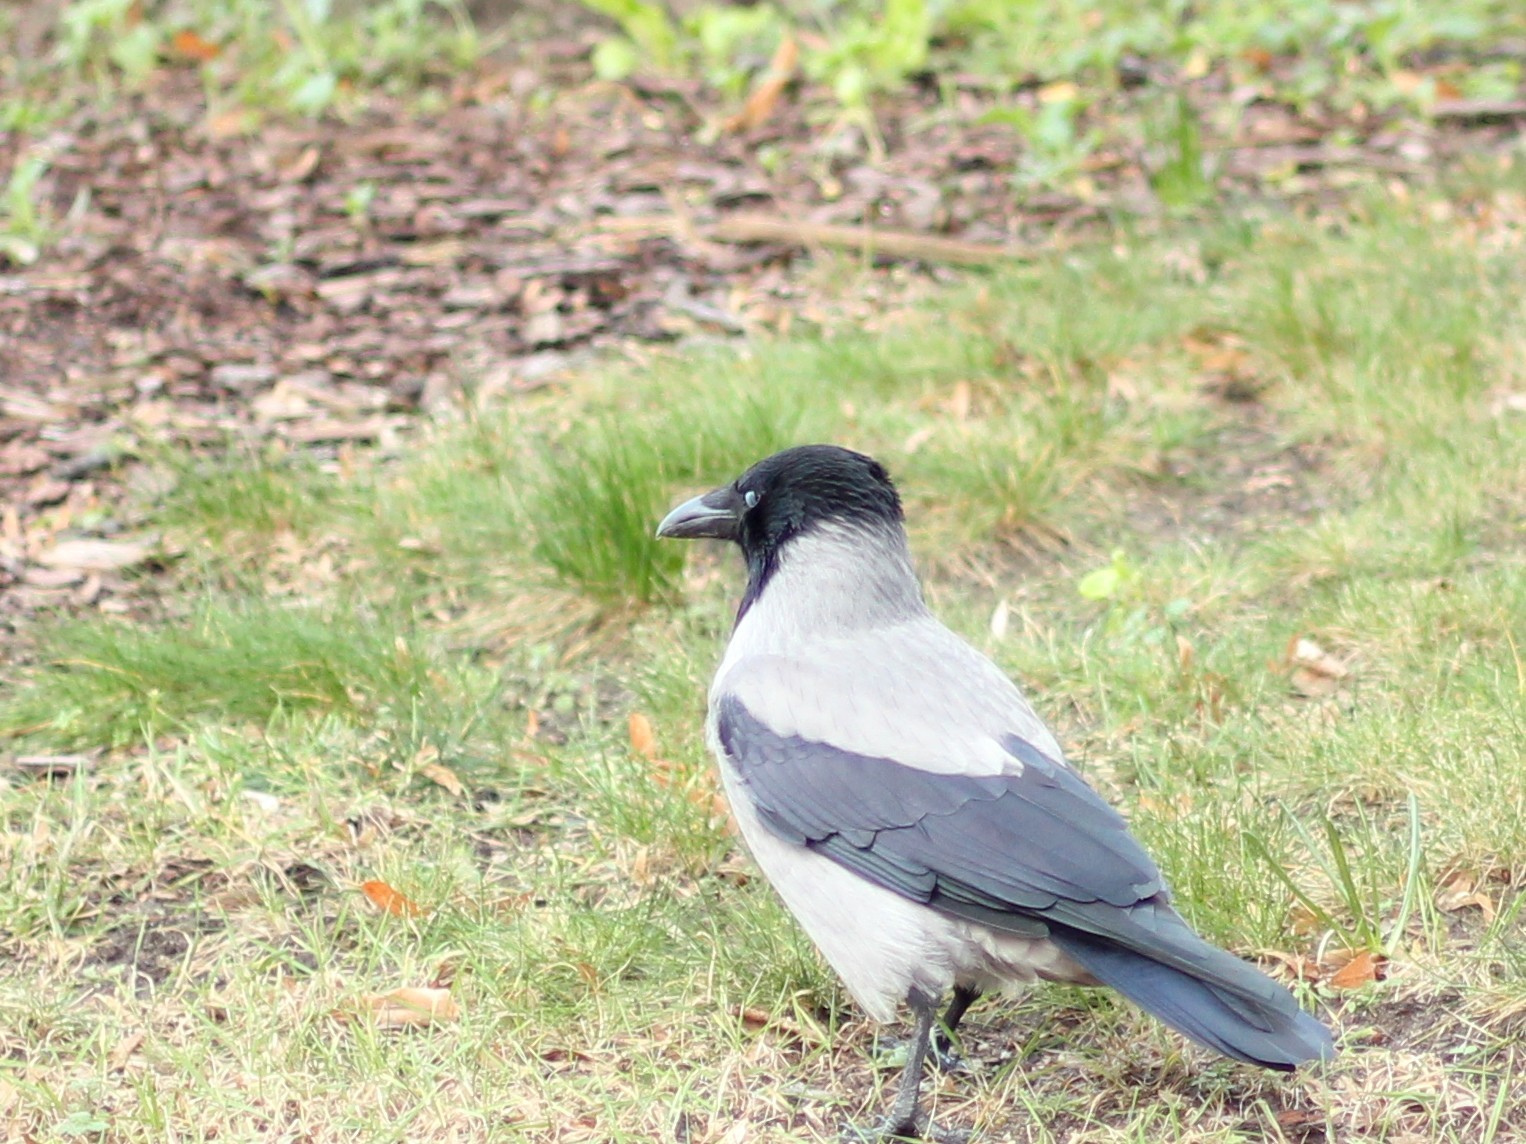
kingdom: Animalia
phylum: Chordata
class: Aves
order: Passeriformes
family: Corvidae
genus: Corvus
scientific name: Corvus cornix
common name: Hooded crow
